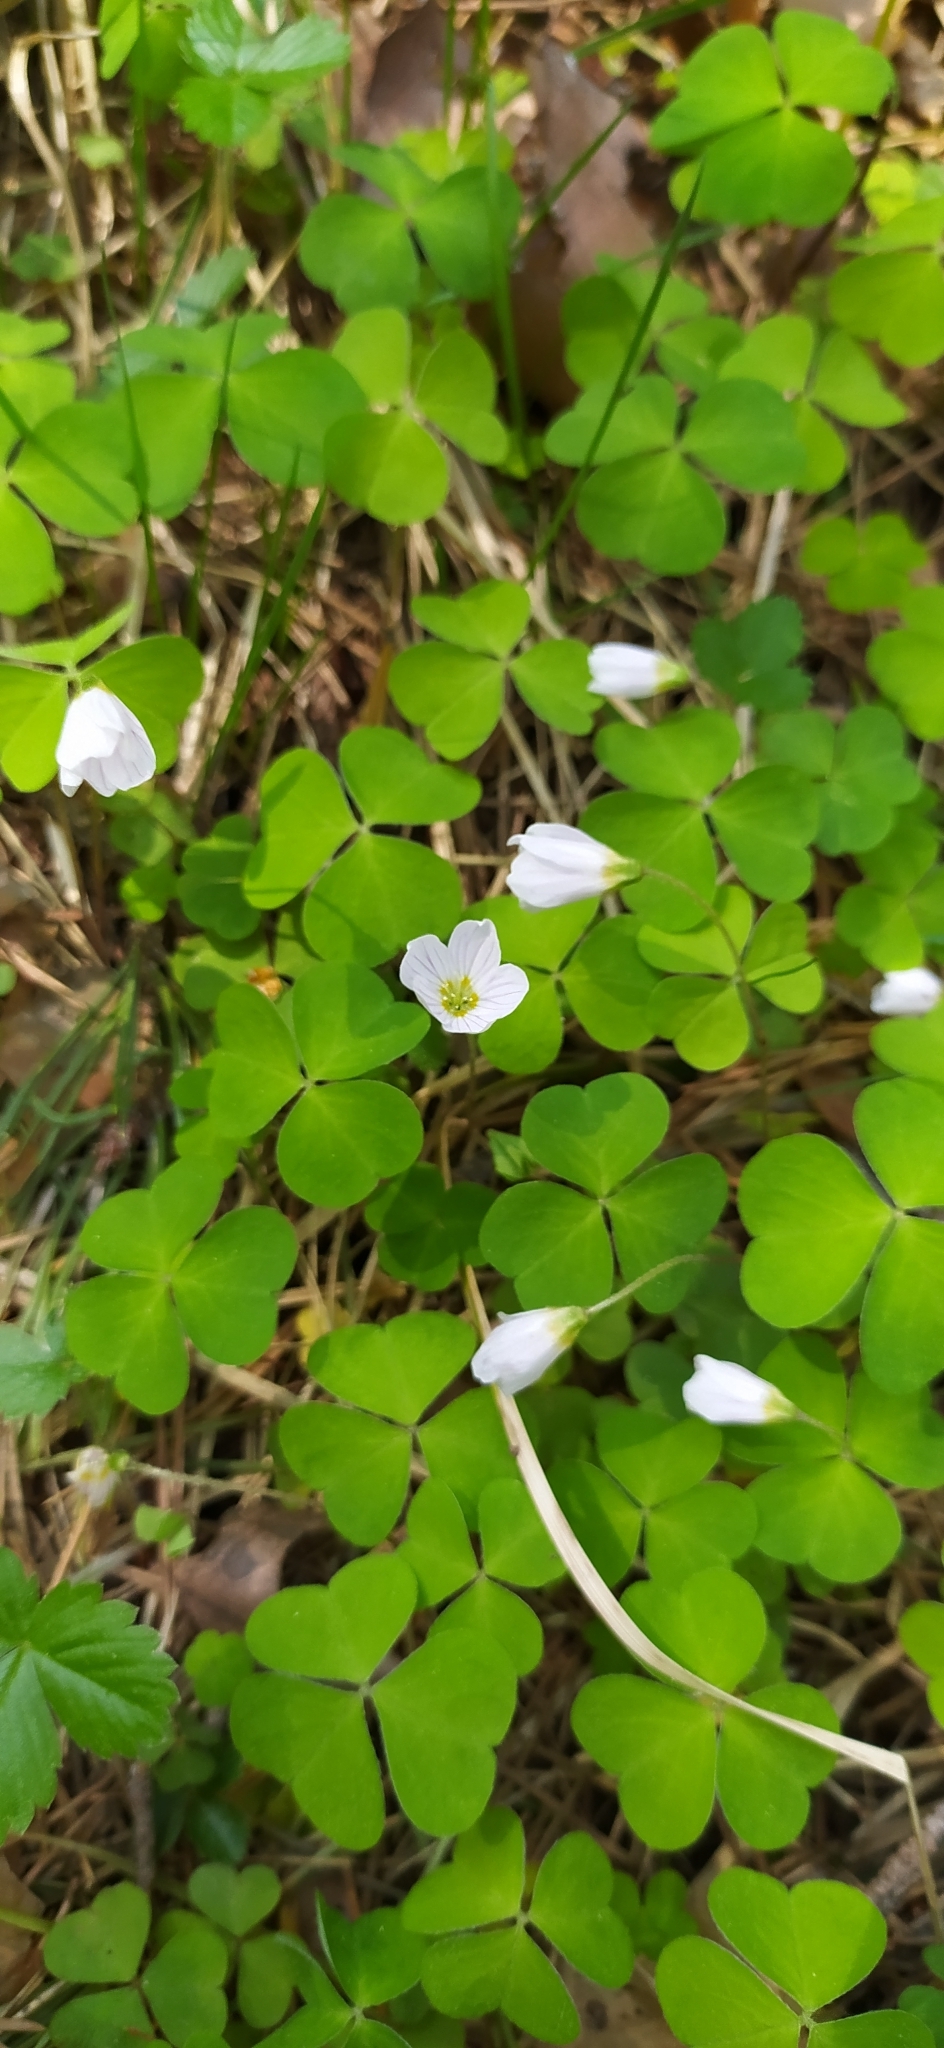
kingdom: Plantae
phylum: Tracheophyta
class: Magnoliopsida
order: Oxalidales
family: Oxalidaceae
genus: Oxalis
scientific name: Oxalis acetosella
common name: Wood-sorrel
